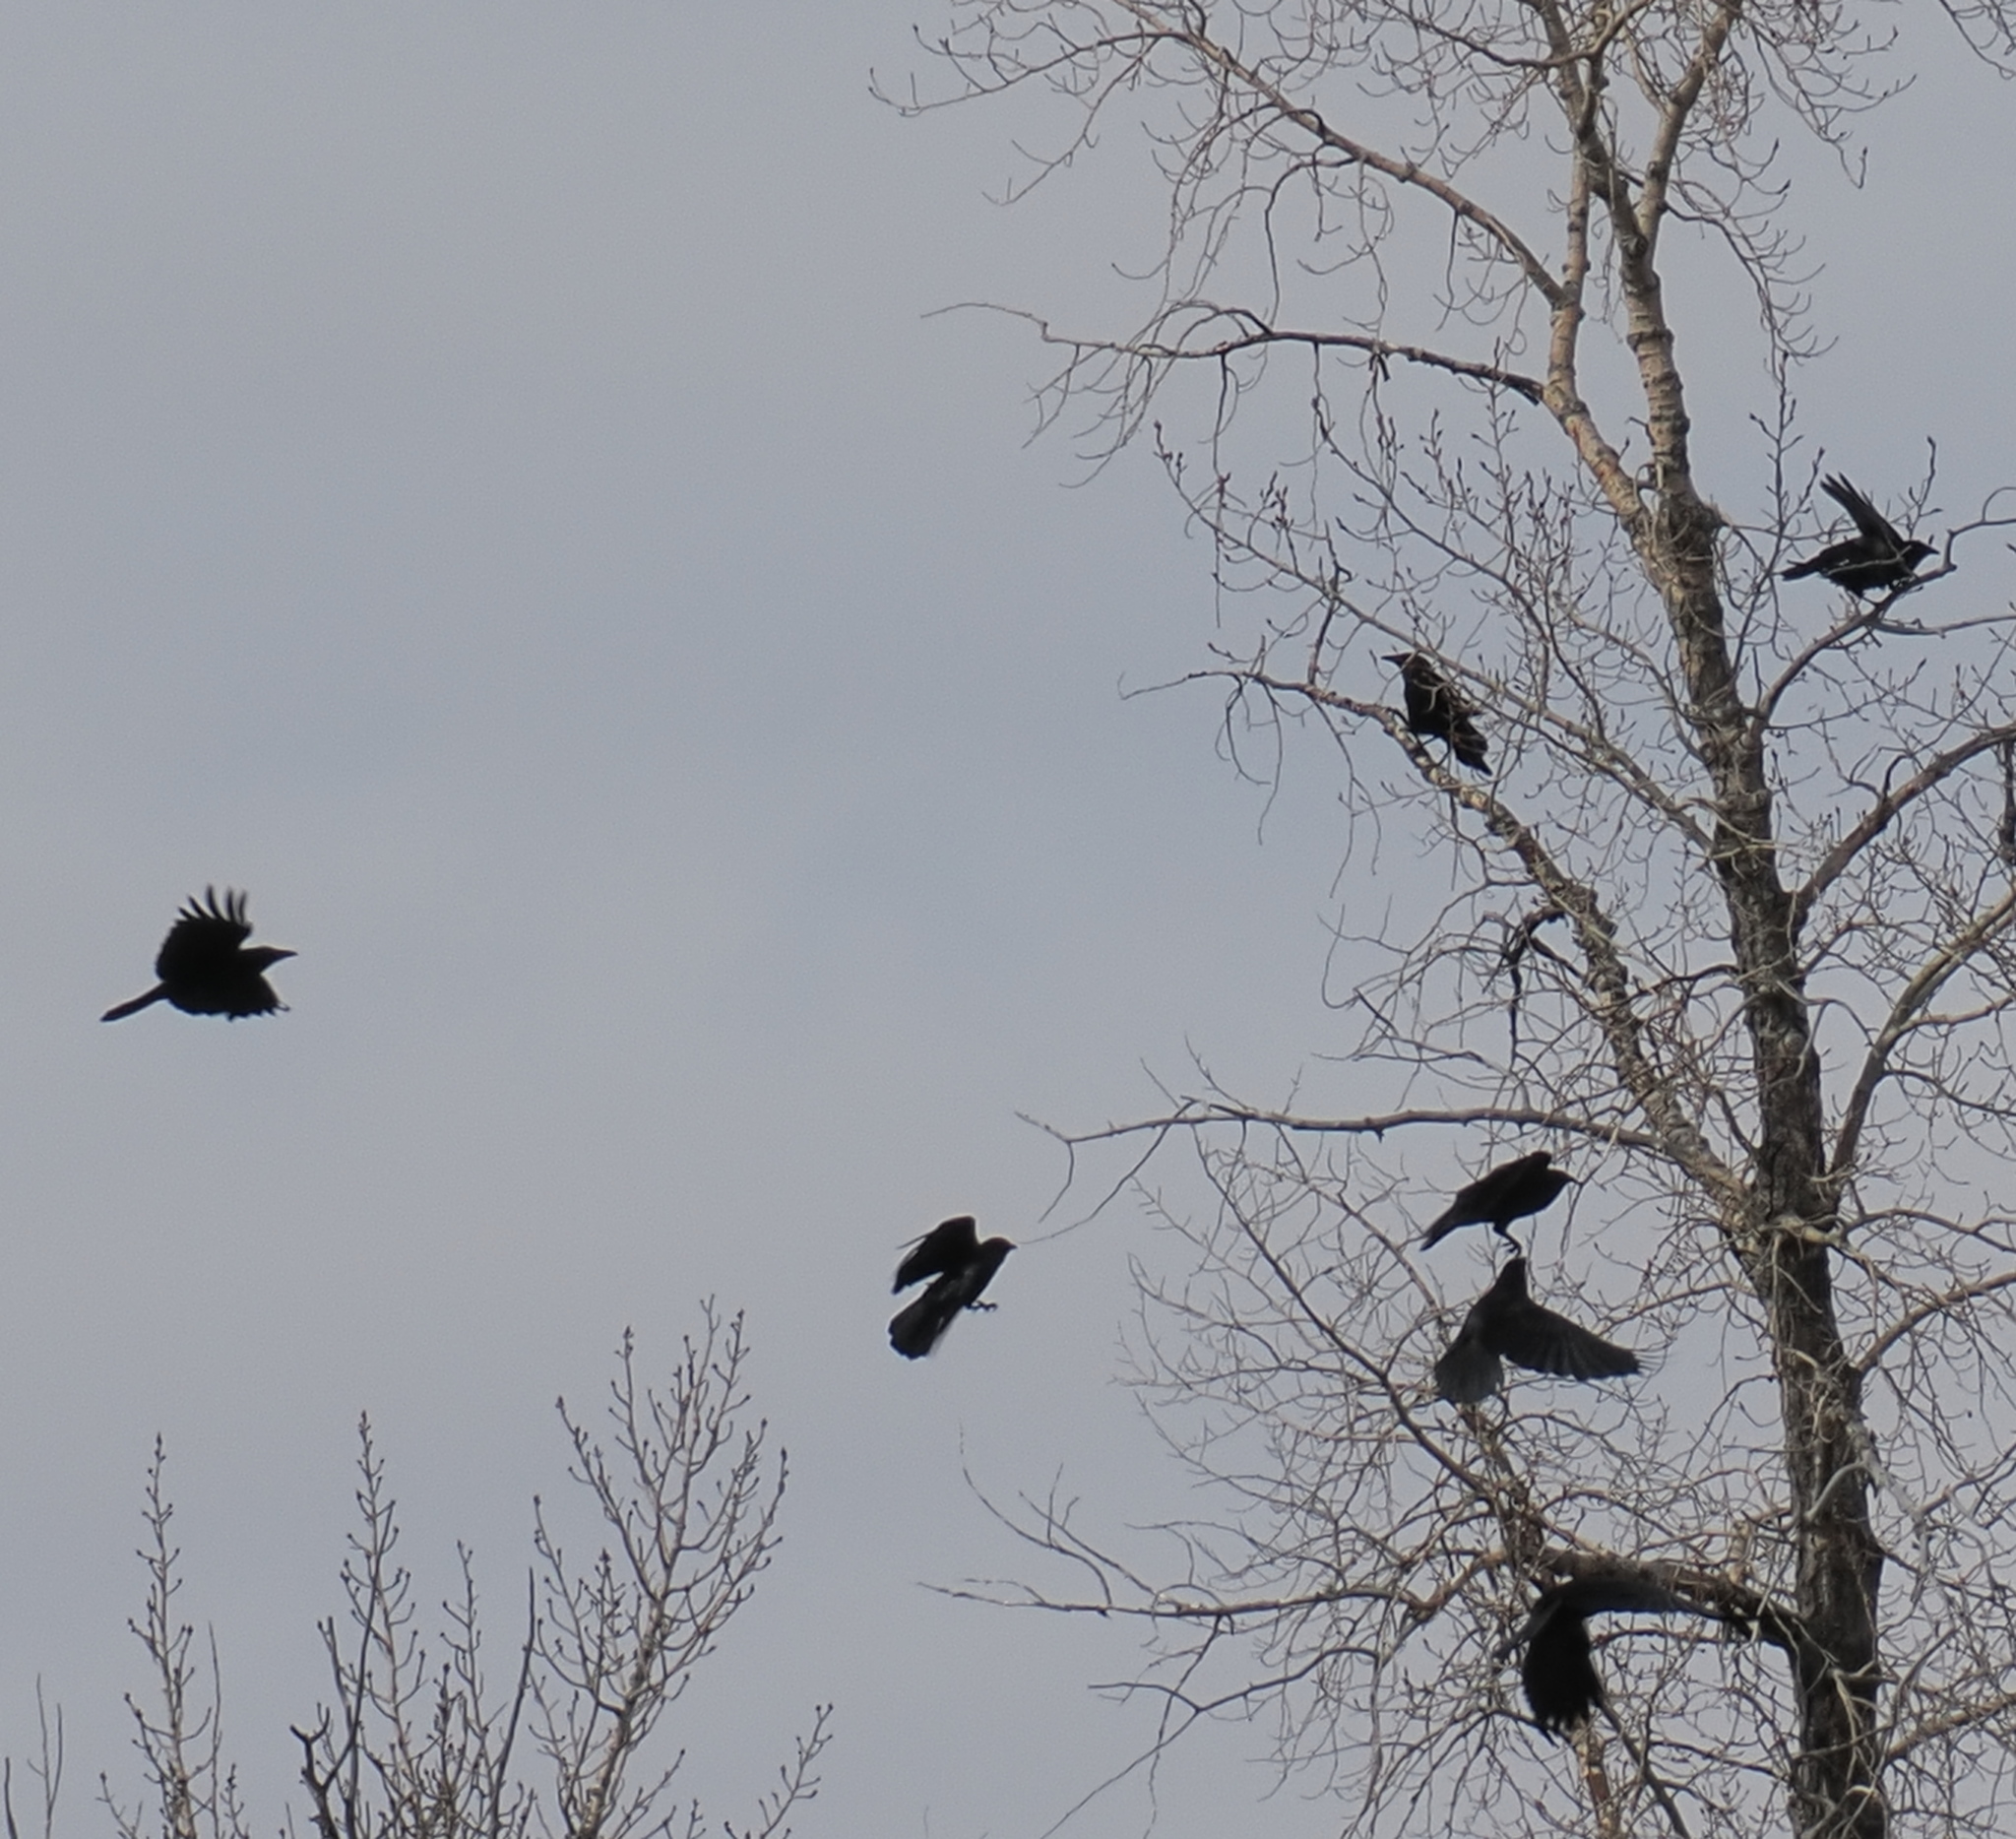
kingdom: Animalia
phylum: Chordata
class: Aves
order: Passeriformes
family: Corvidae
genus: Corvus
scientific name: Corvus brachyrhynchos
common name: American crow
